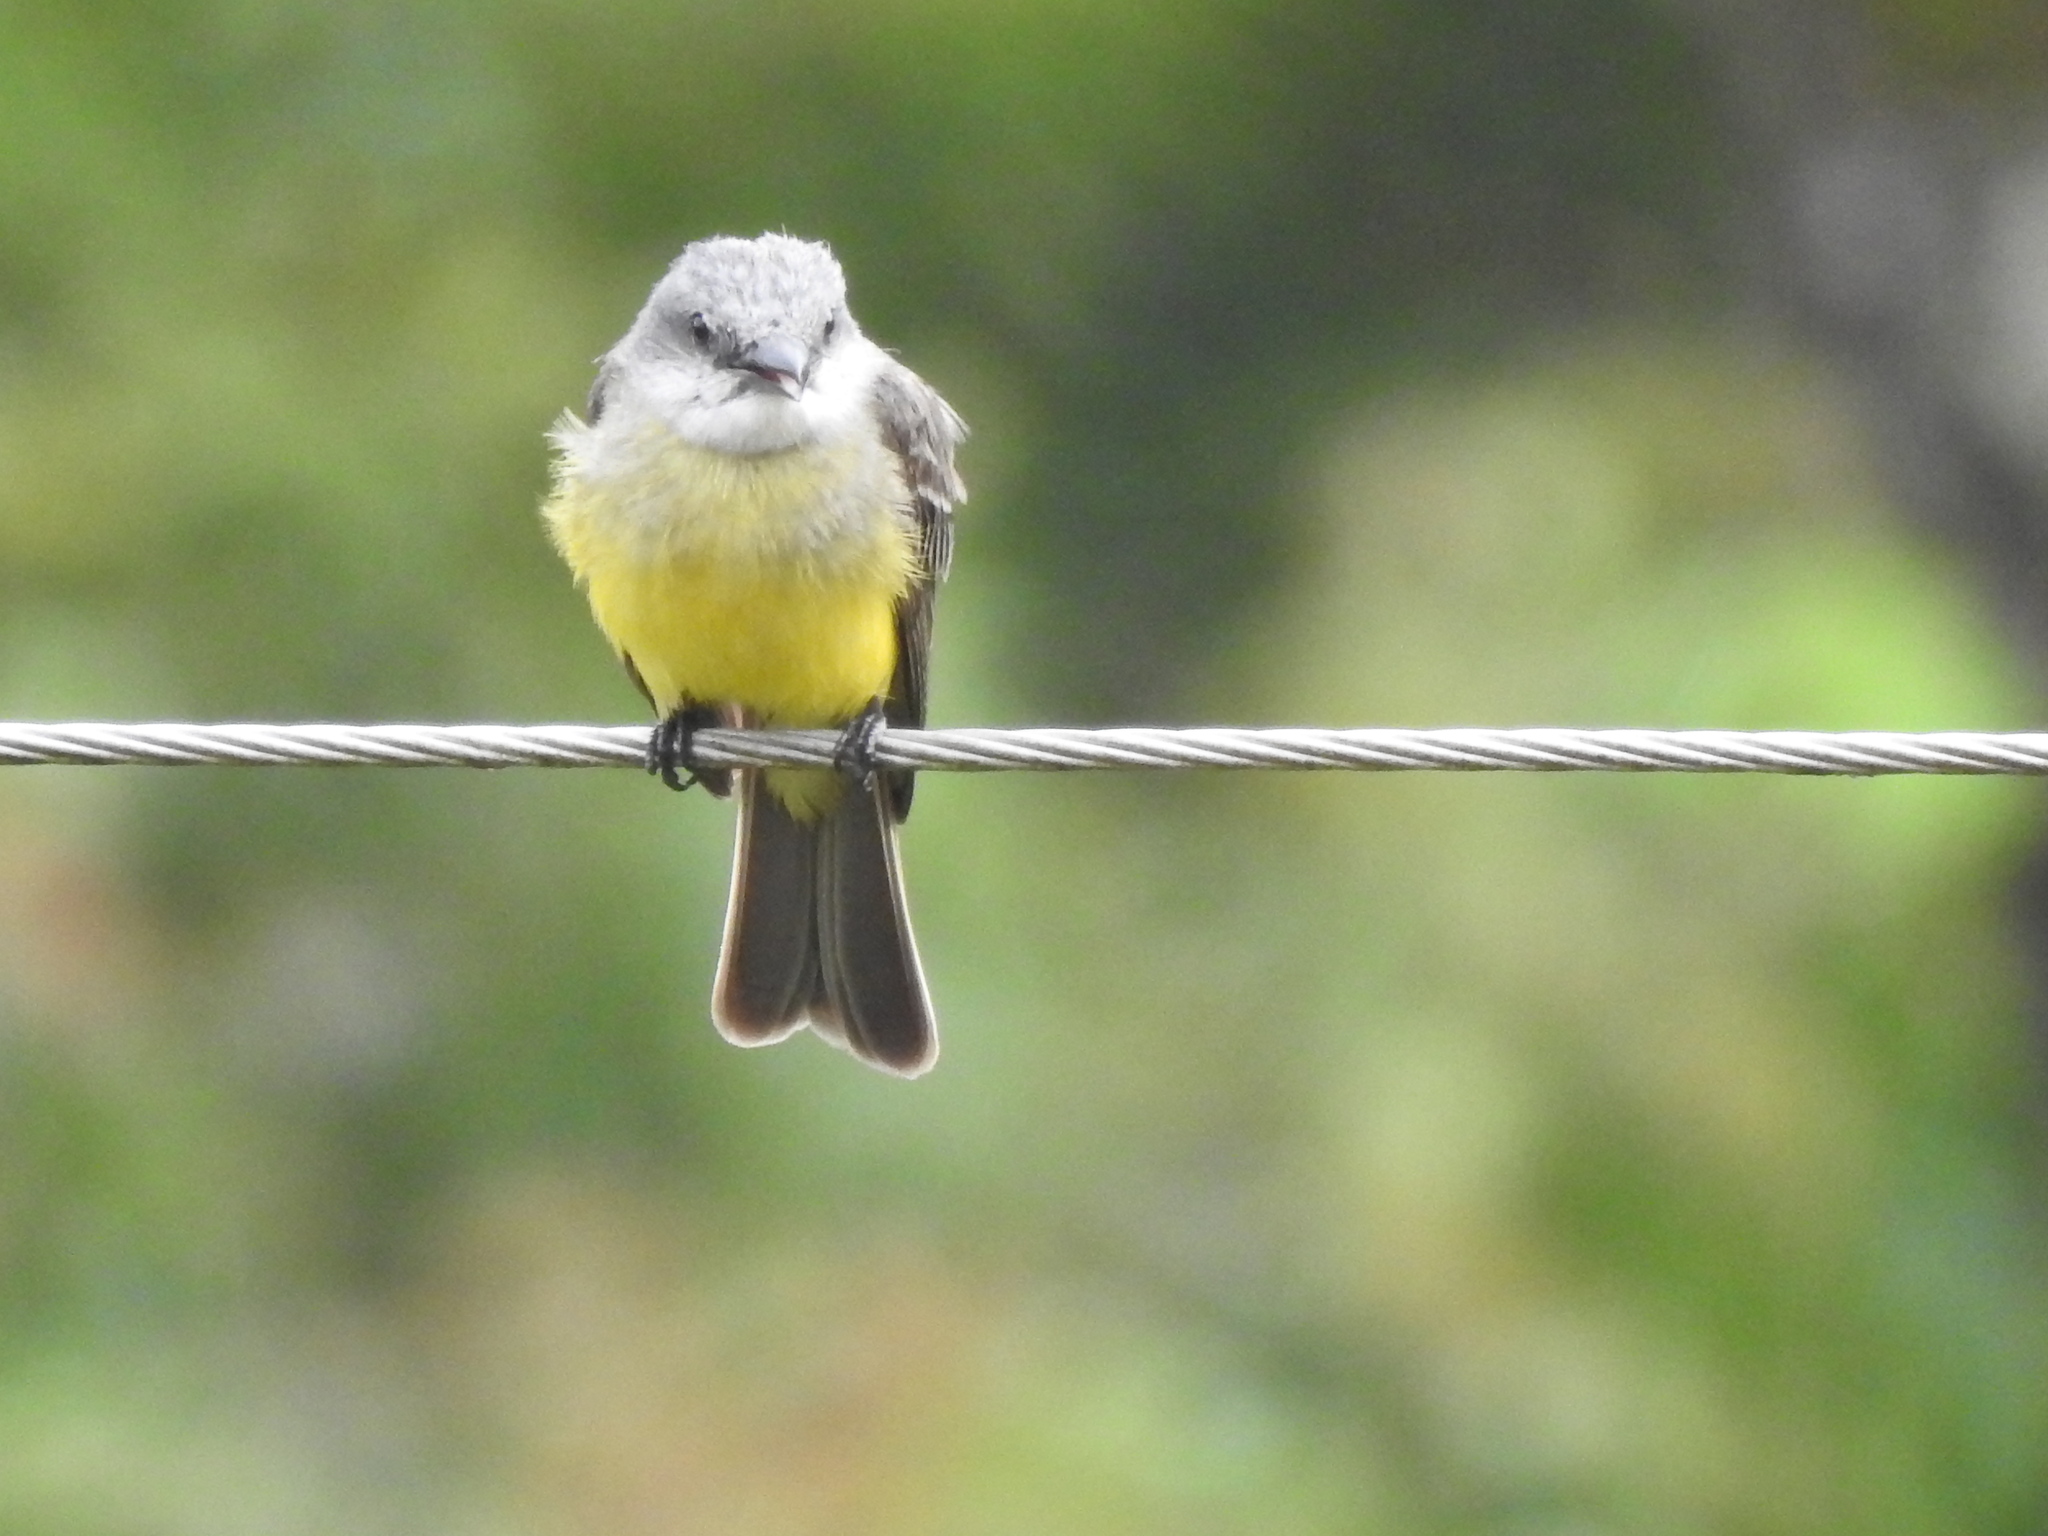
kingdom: Animalia
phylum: Chordata
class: Aves
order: Passeriformes
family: Tyrannidae
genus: Tyrannus
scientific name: Tyrannus melancholicus
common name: Tropical kingbird
